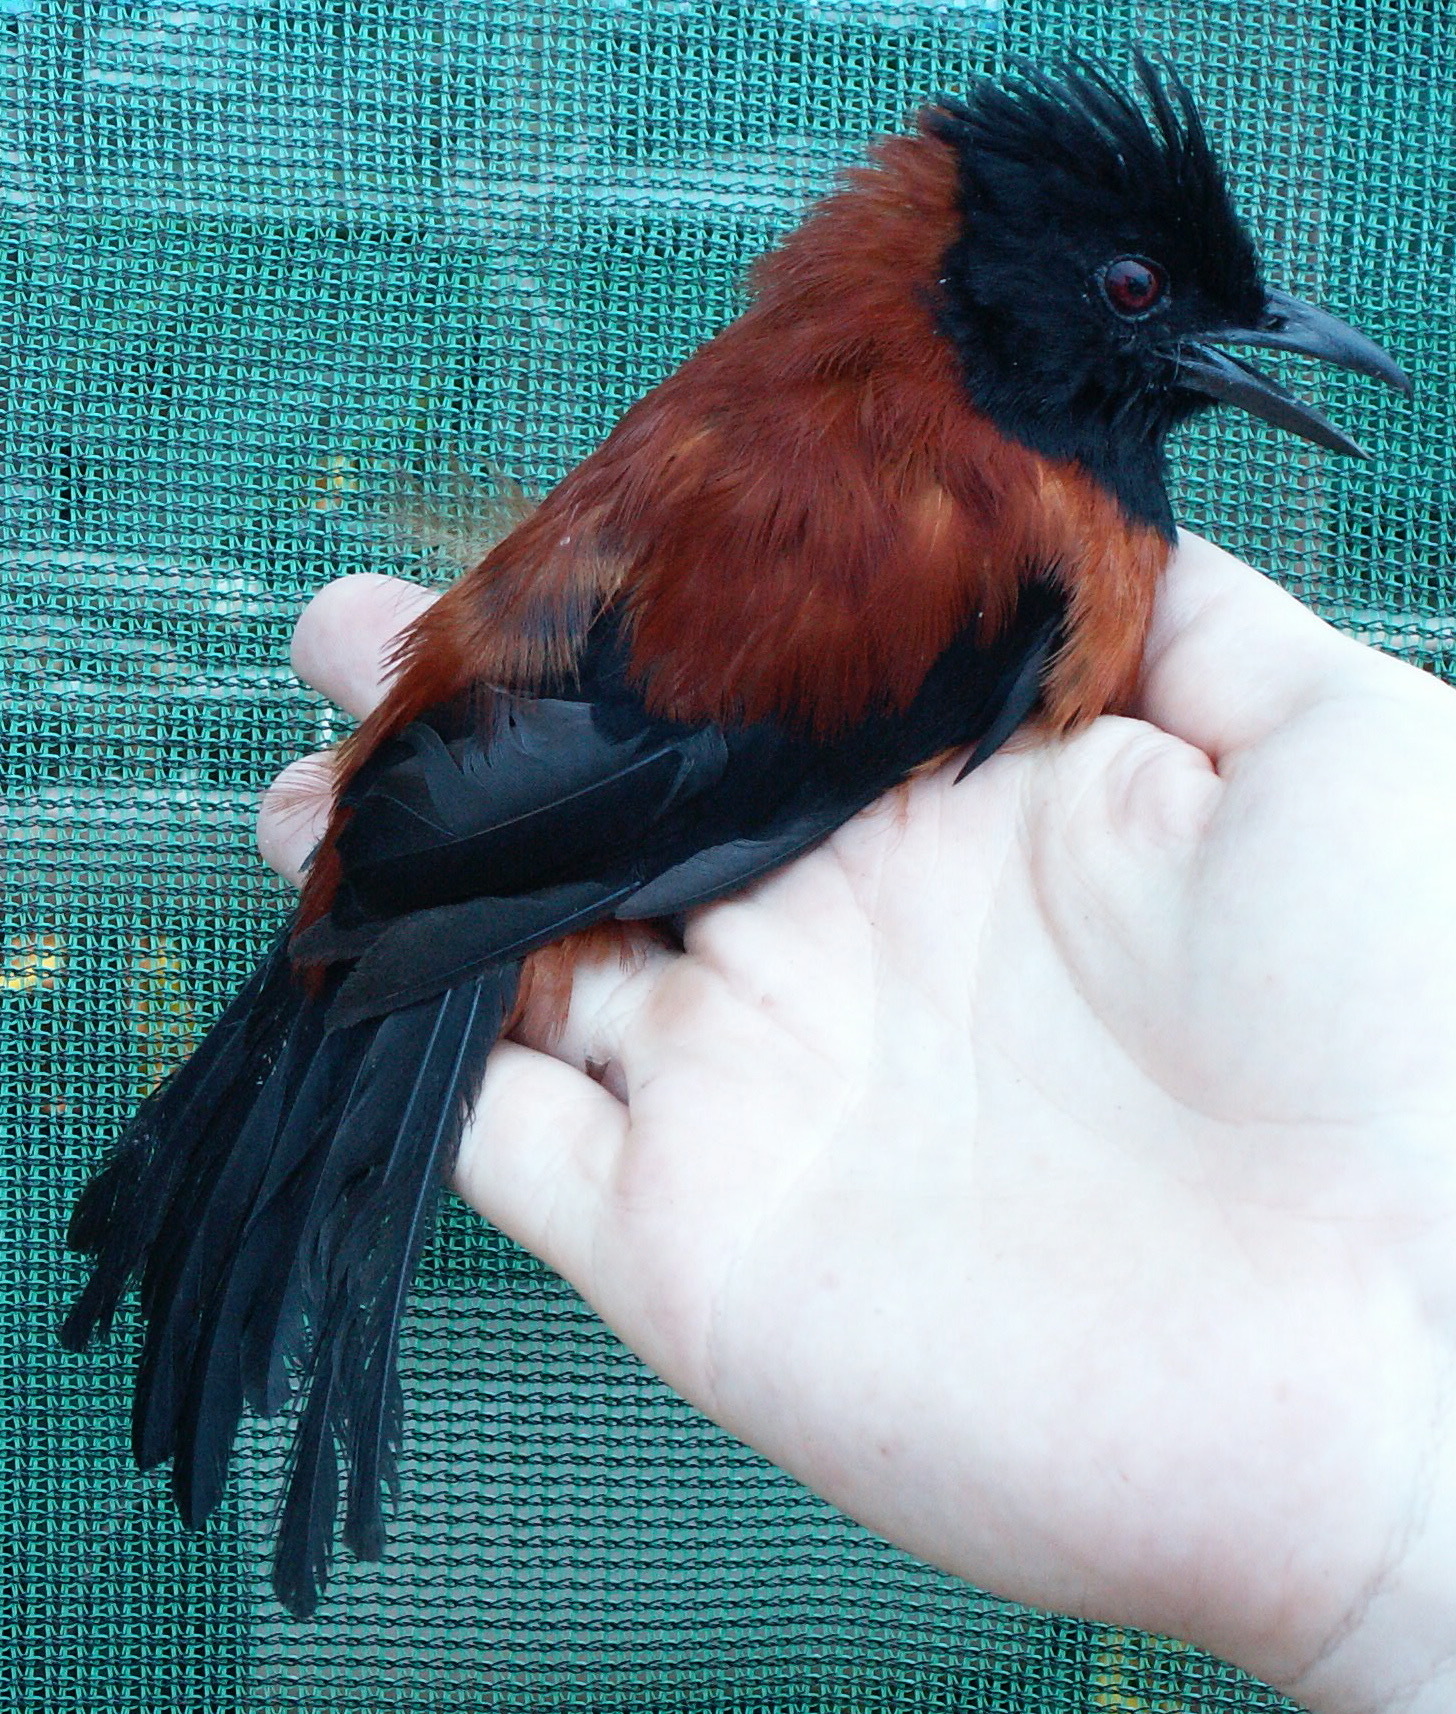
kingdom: Animalia
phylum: Chordata
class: Aves
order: Passeriformes
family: Oriolidae
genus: Pitohui
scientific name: Pitohui dichrous
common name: Hooded pitohui
